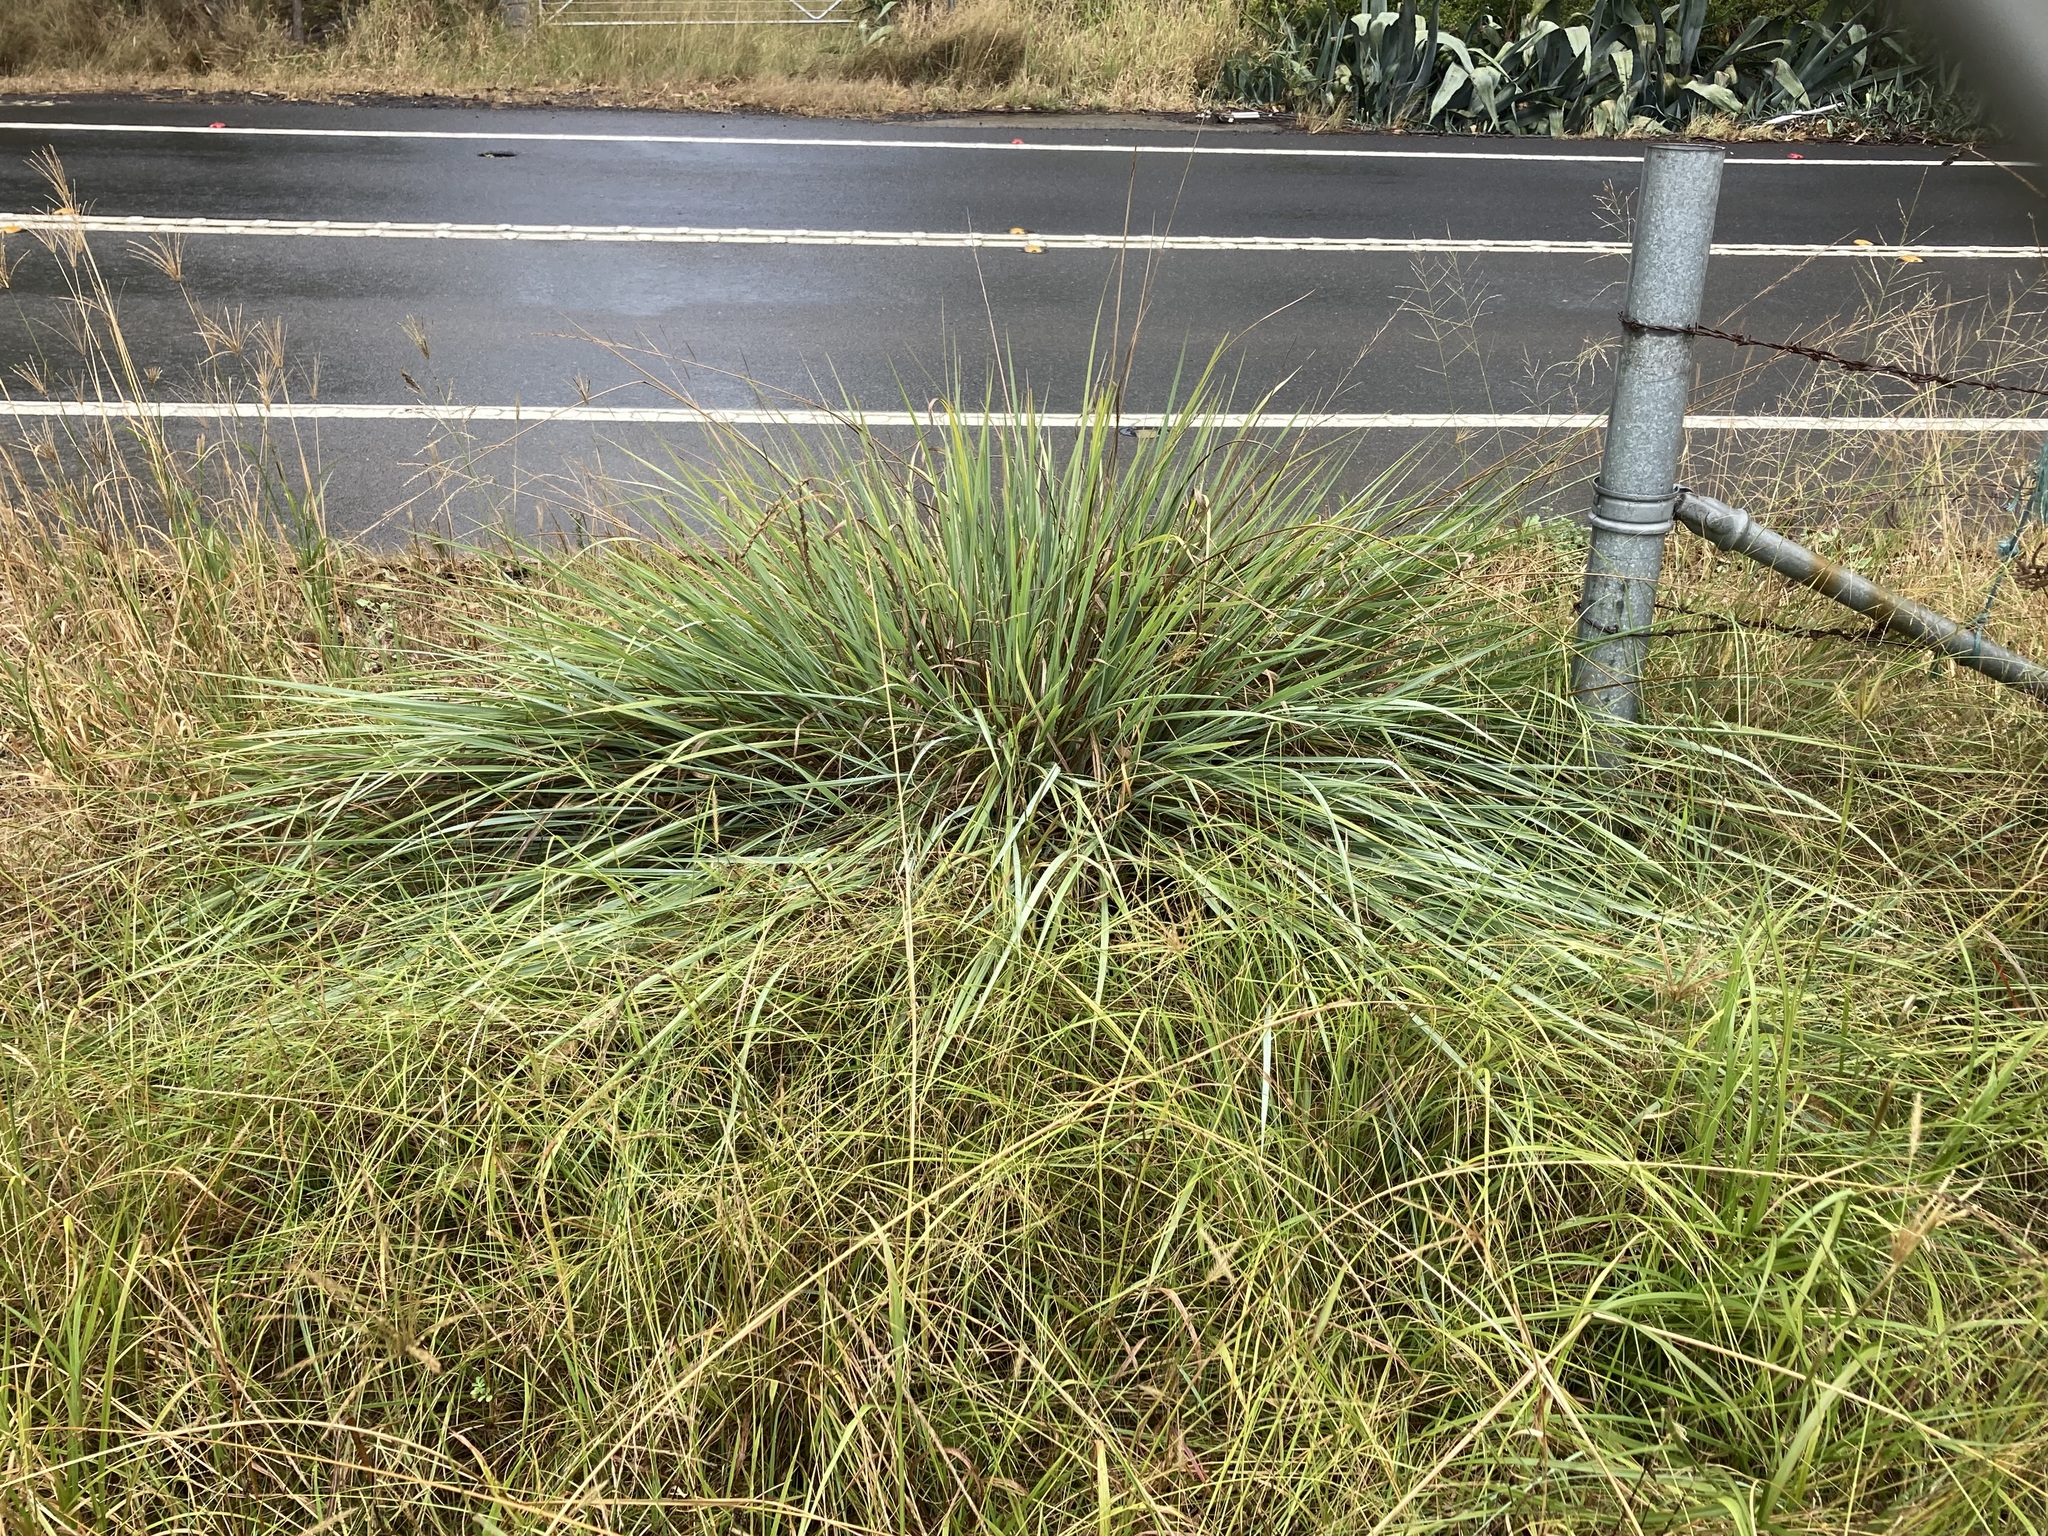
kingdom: Plantae
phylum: Tracheophyta
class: Liliopsida
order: Poales
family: Poaceae
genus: Paspalum
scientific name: Paspalum quadrifarium
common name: Tussock paspalum
